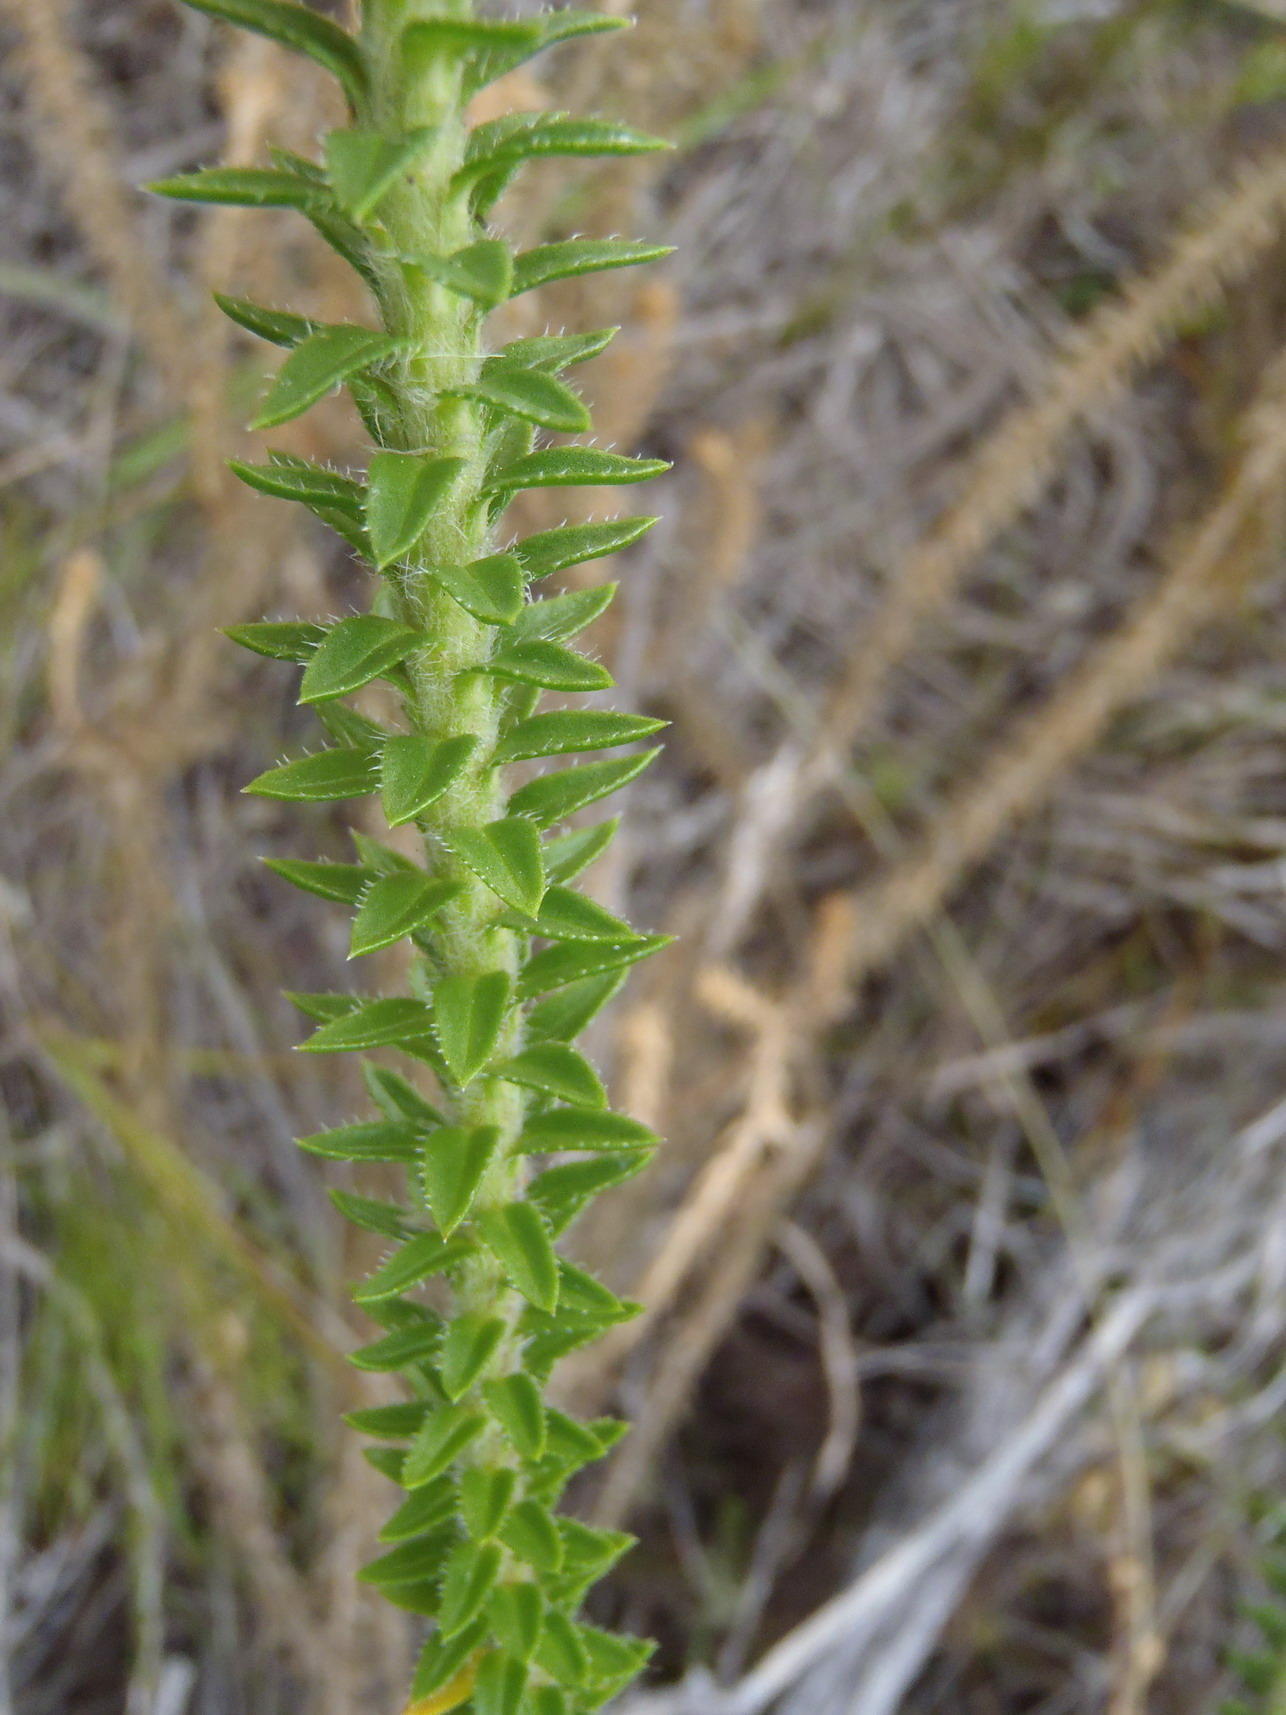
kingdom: Plantae
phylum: Tracheophyta
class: Magnoliopsida
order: Asterales
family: Asteraceae
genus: Felicia
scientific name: Felicia echinata
